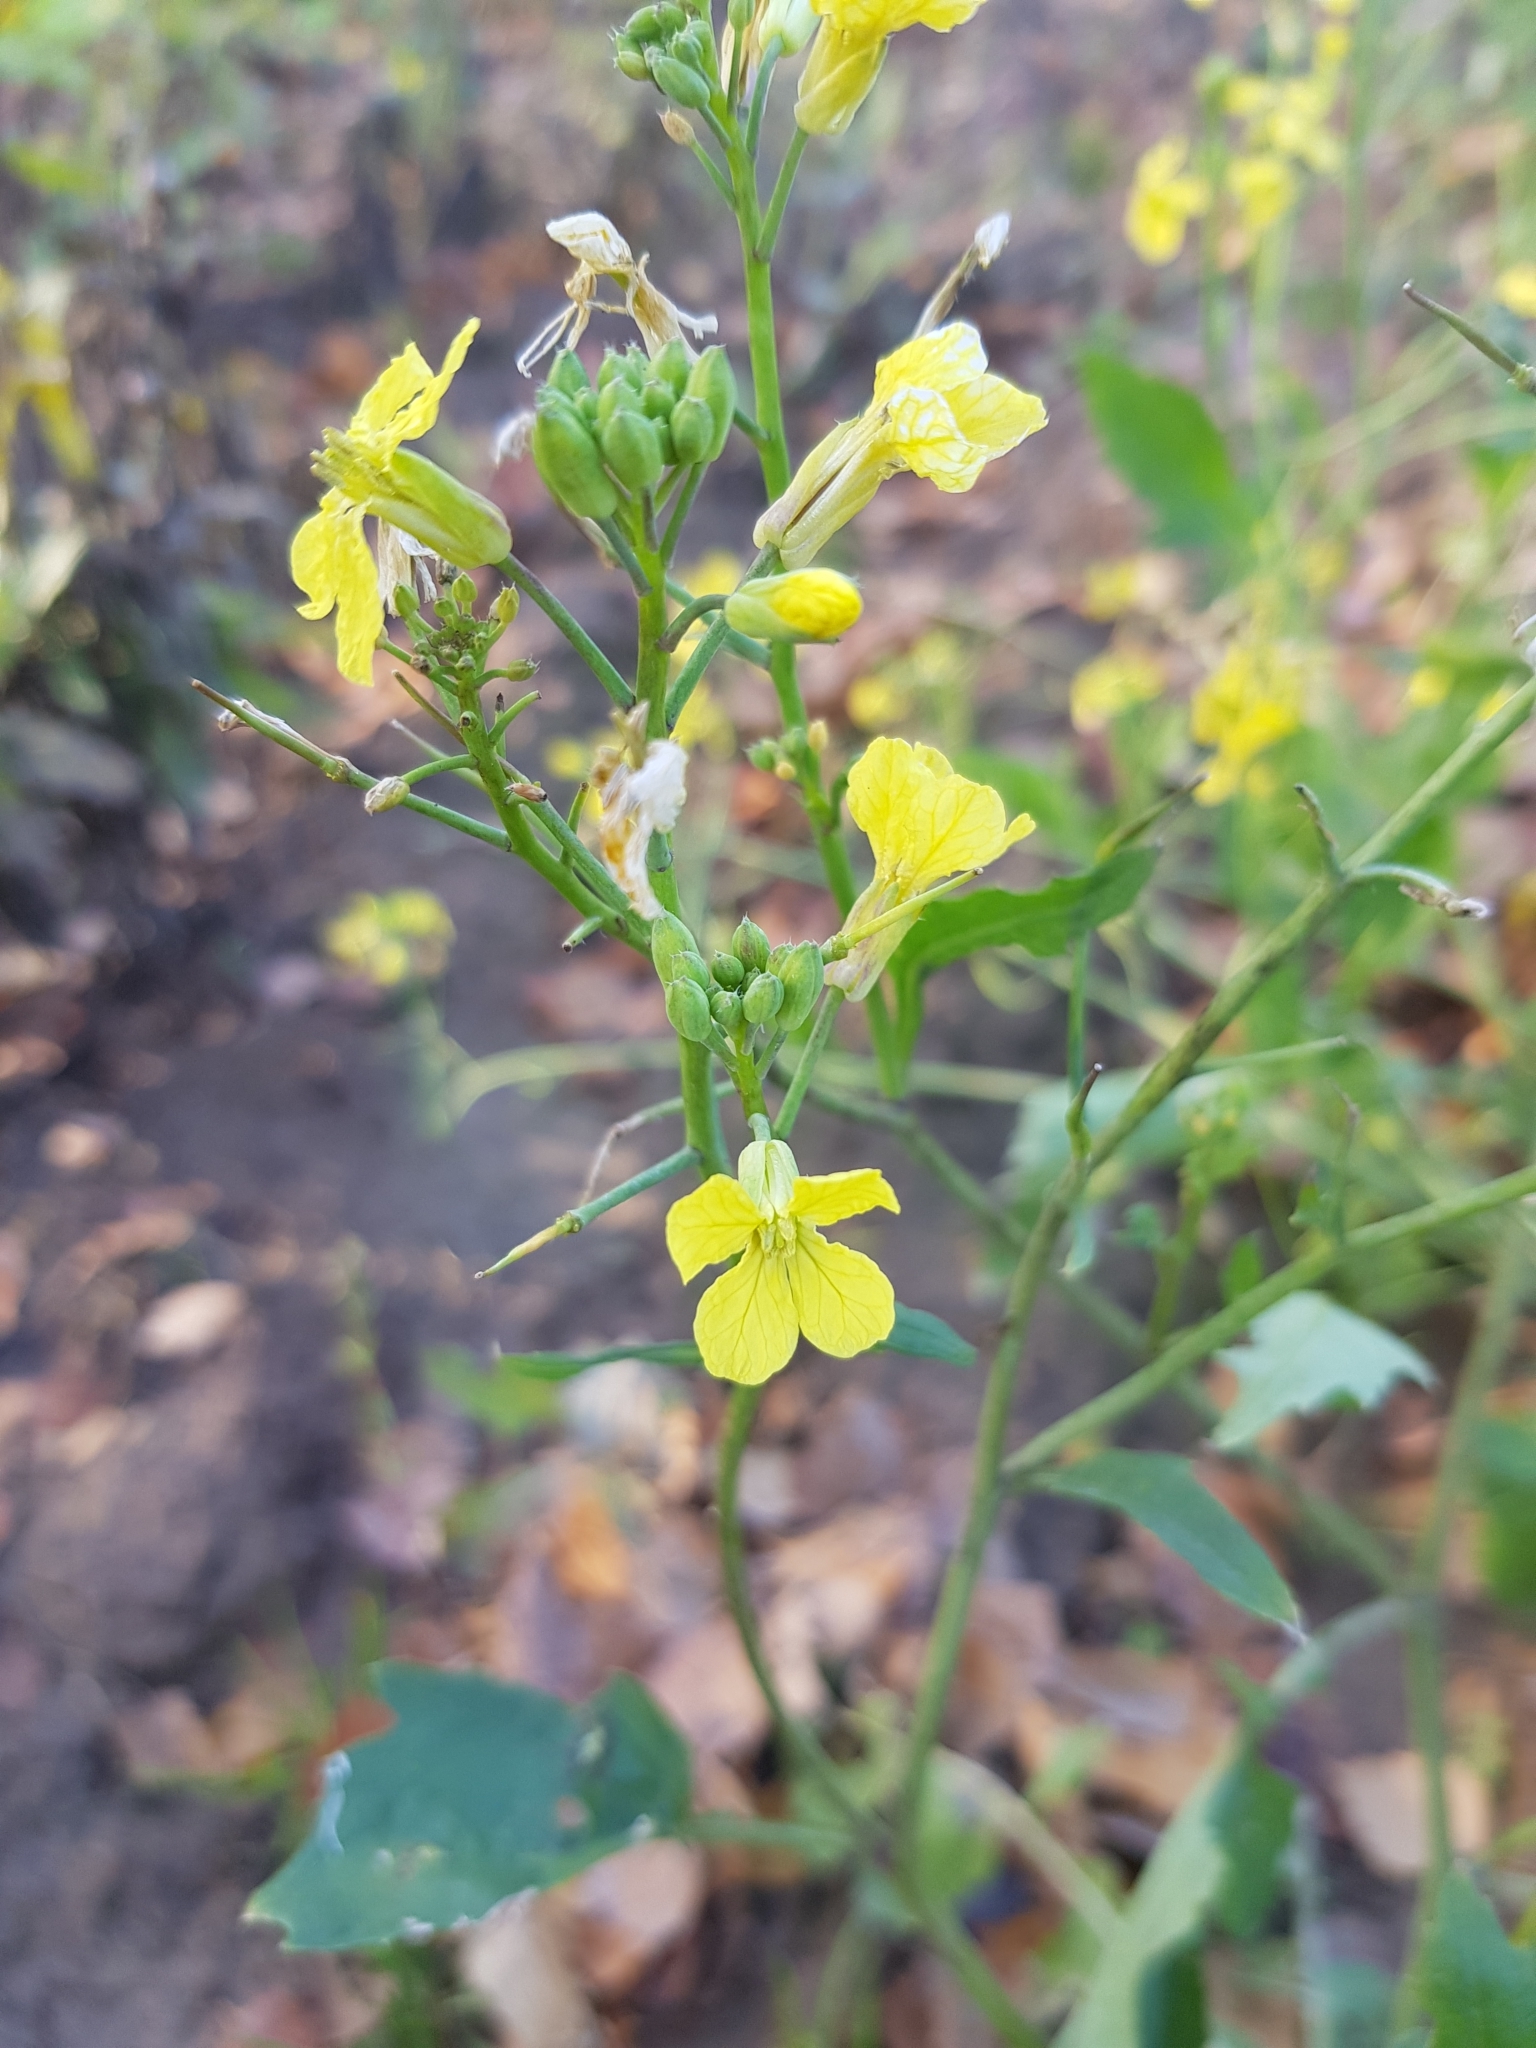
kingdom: Plantae
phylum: Tracheophyta
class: Magnoliopsida
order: Brassicales
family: Brassicaceae
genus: Raphanus
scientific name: Raphanus raphanistrum
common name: Wild radish
